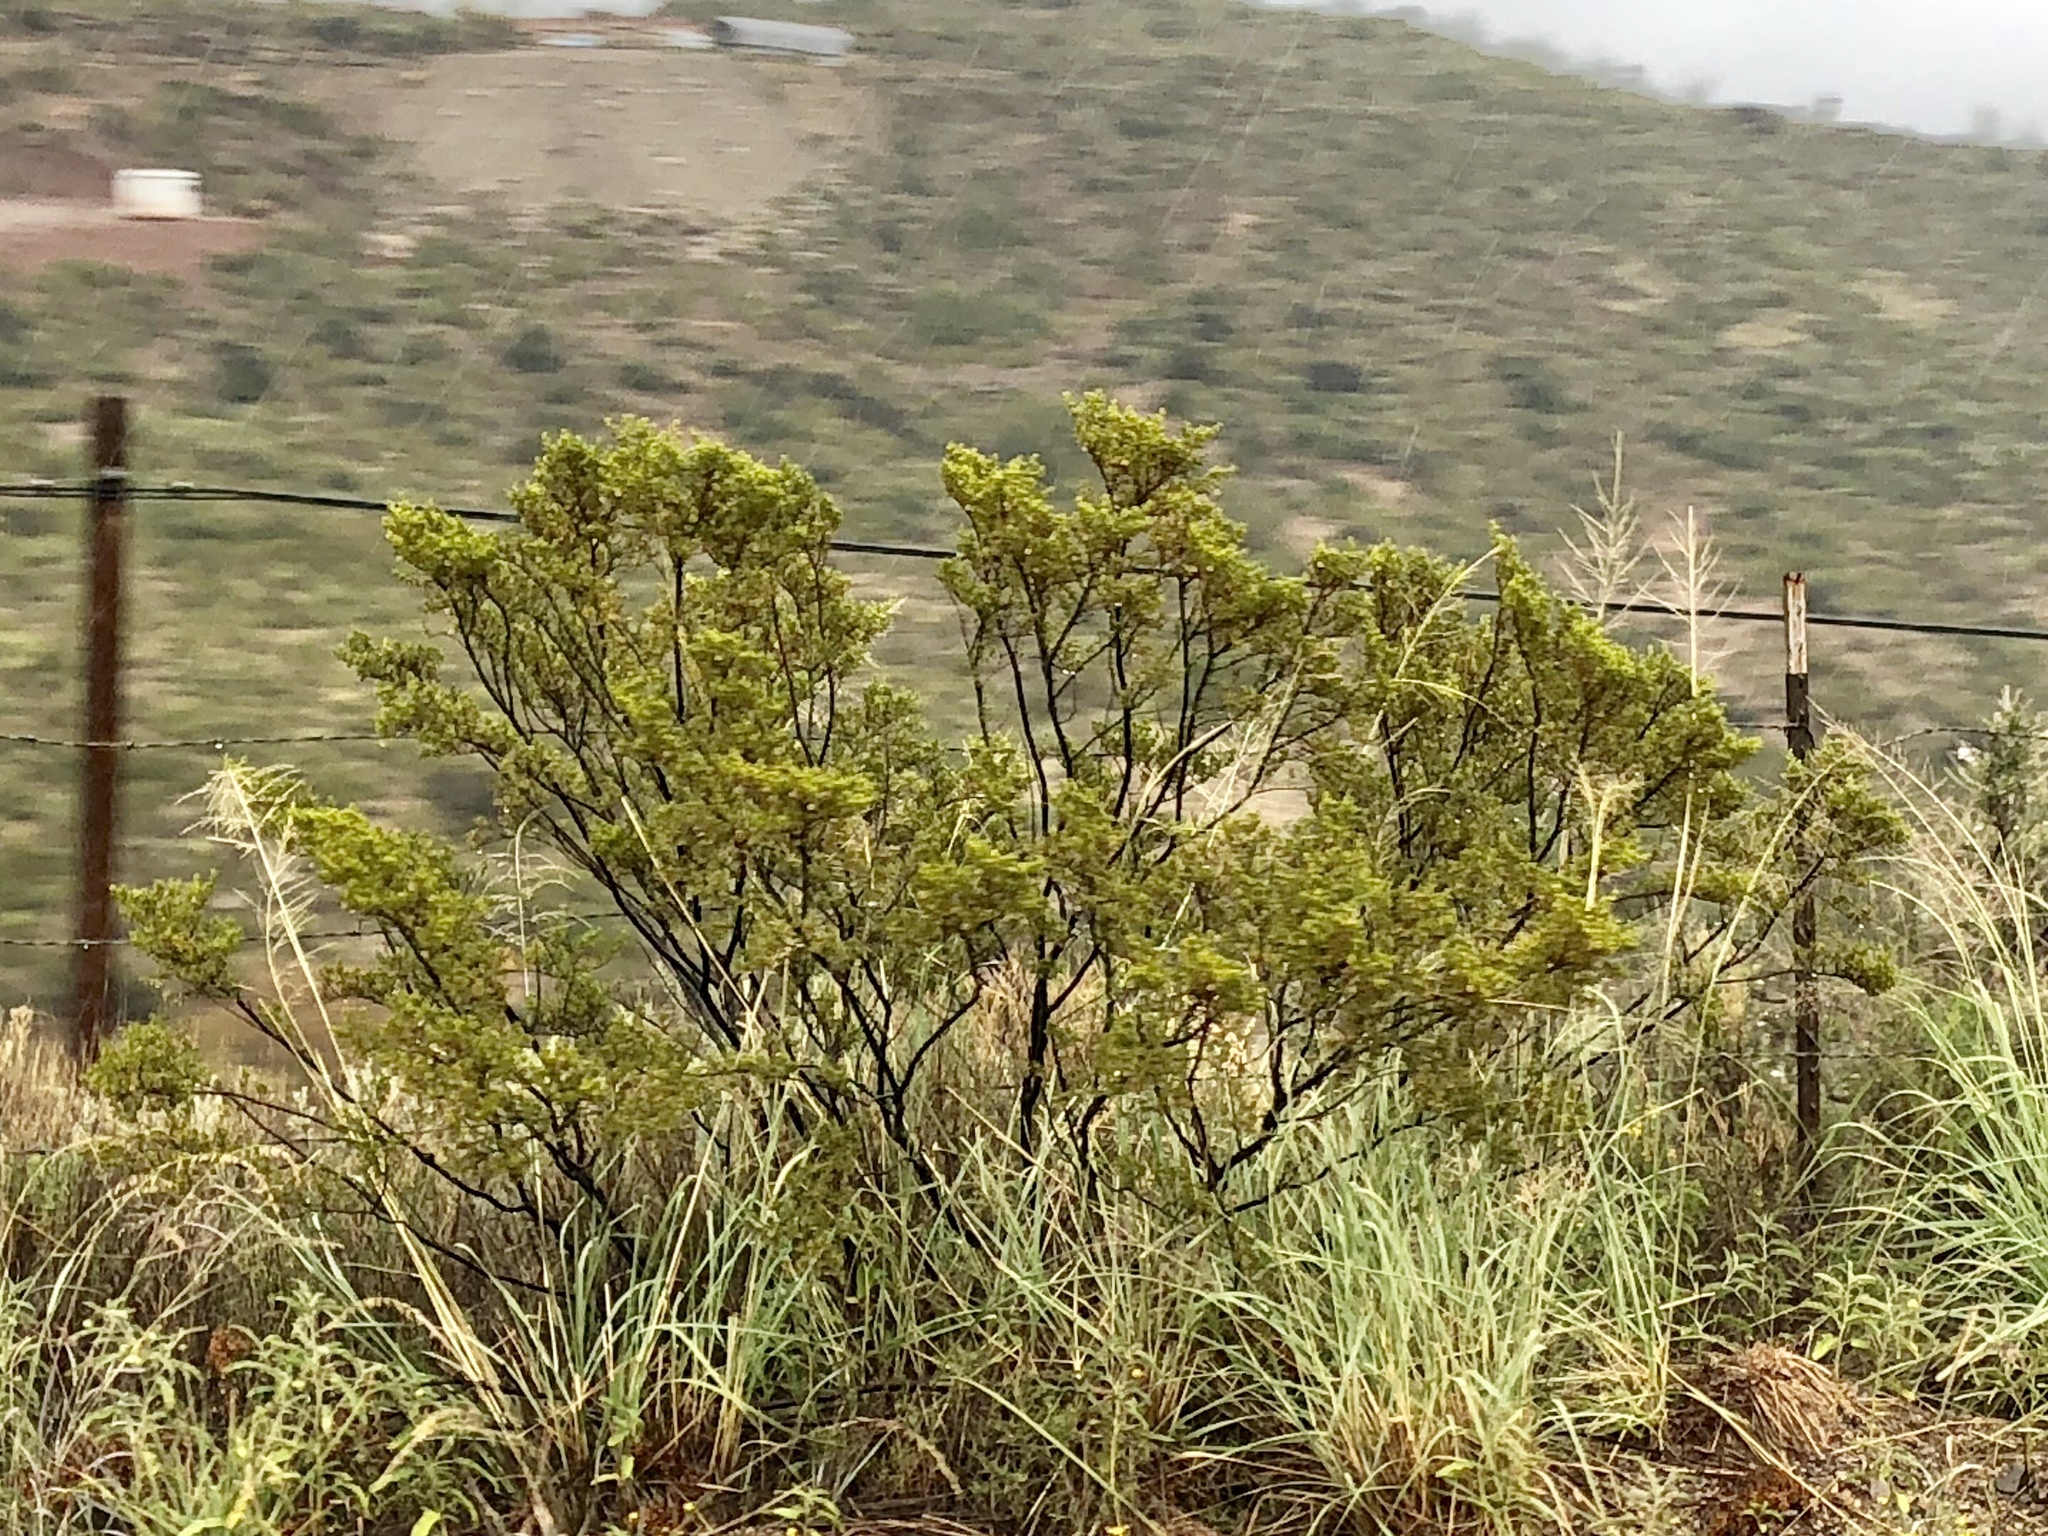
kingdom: Plantae
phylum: Tracheophyta
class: Magnoliopsida
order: Zygophyllales
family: Zygophyllaceae
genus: Larrea
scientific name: Larrea tridentata
